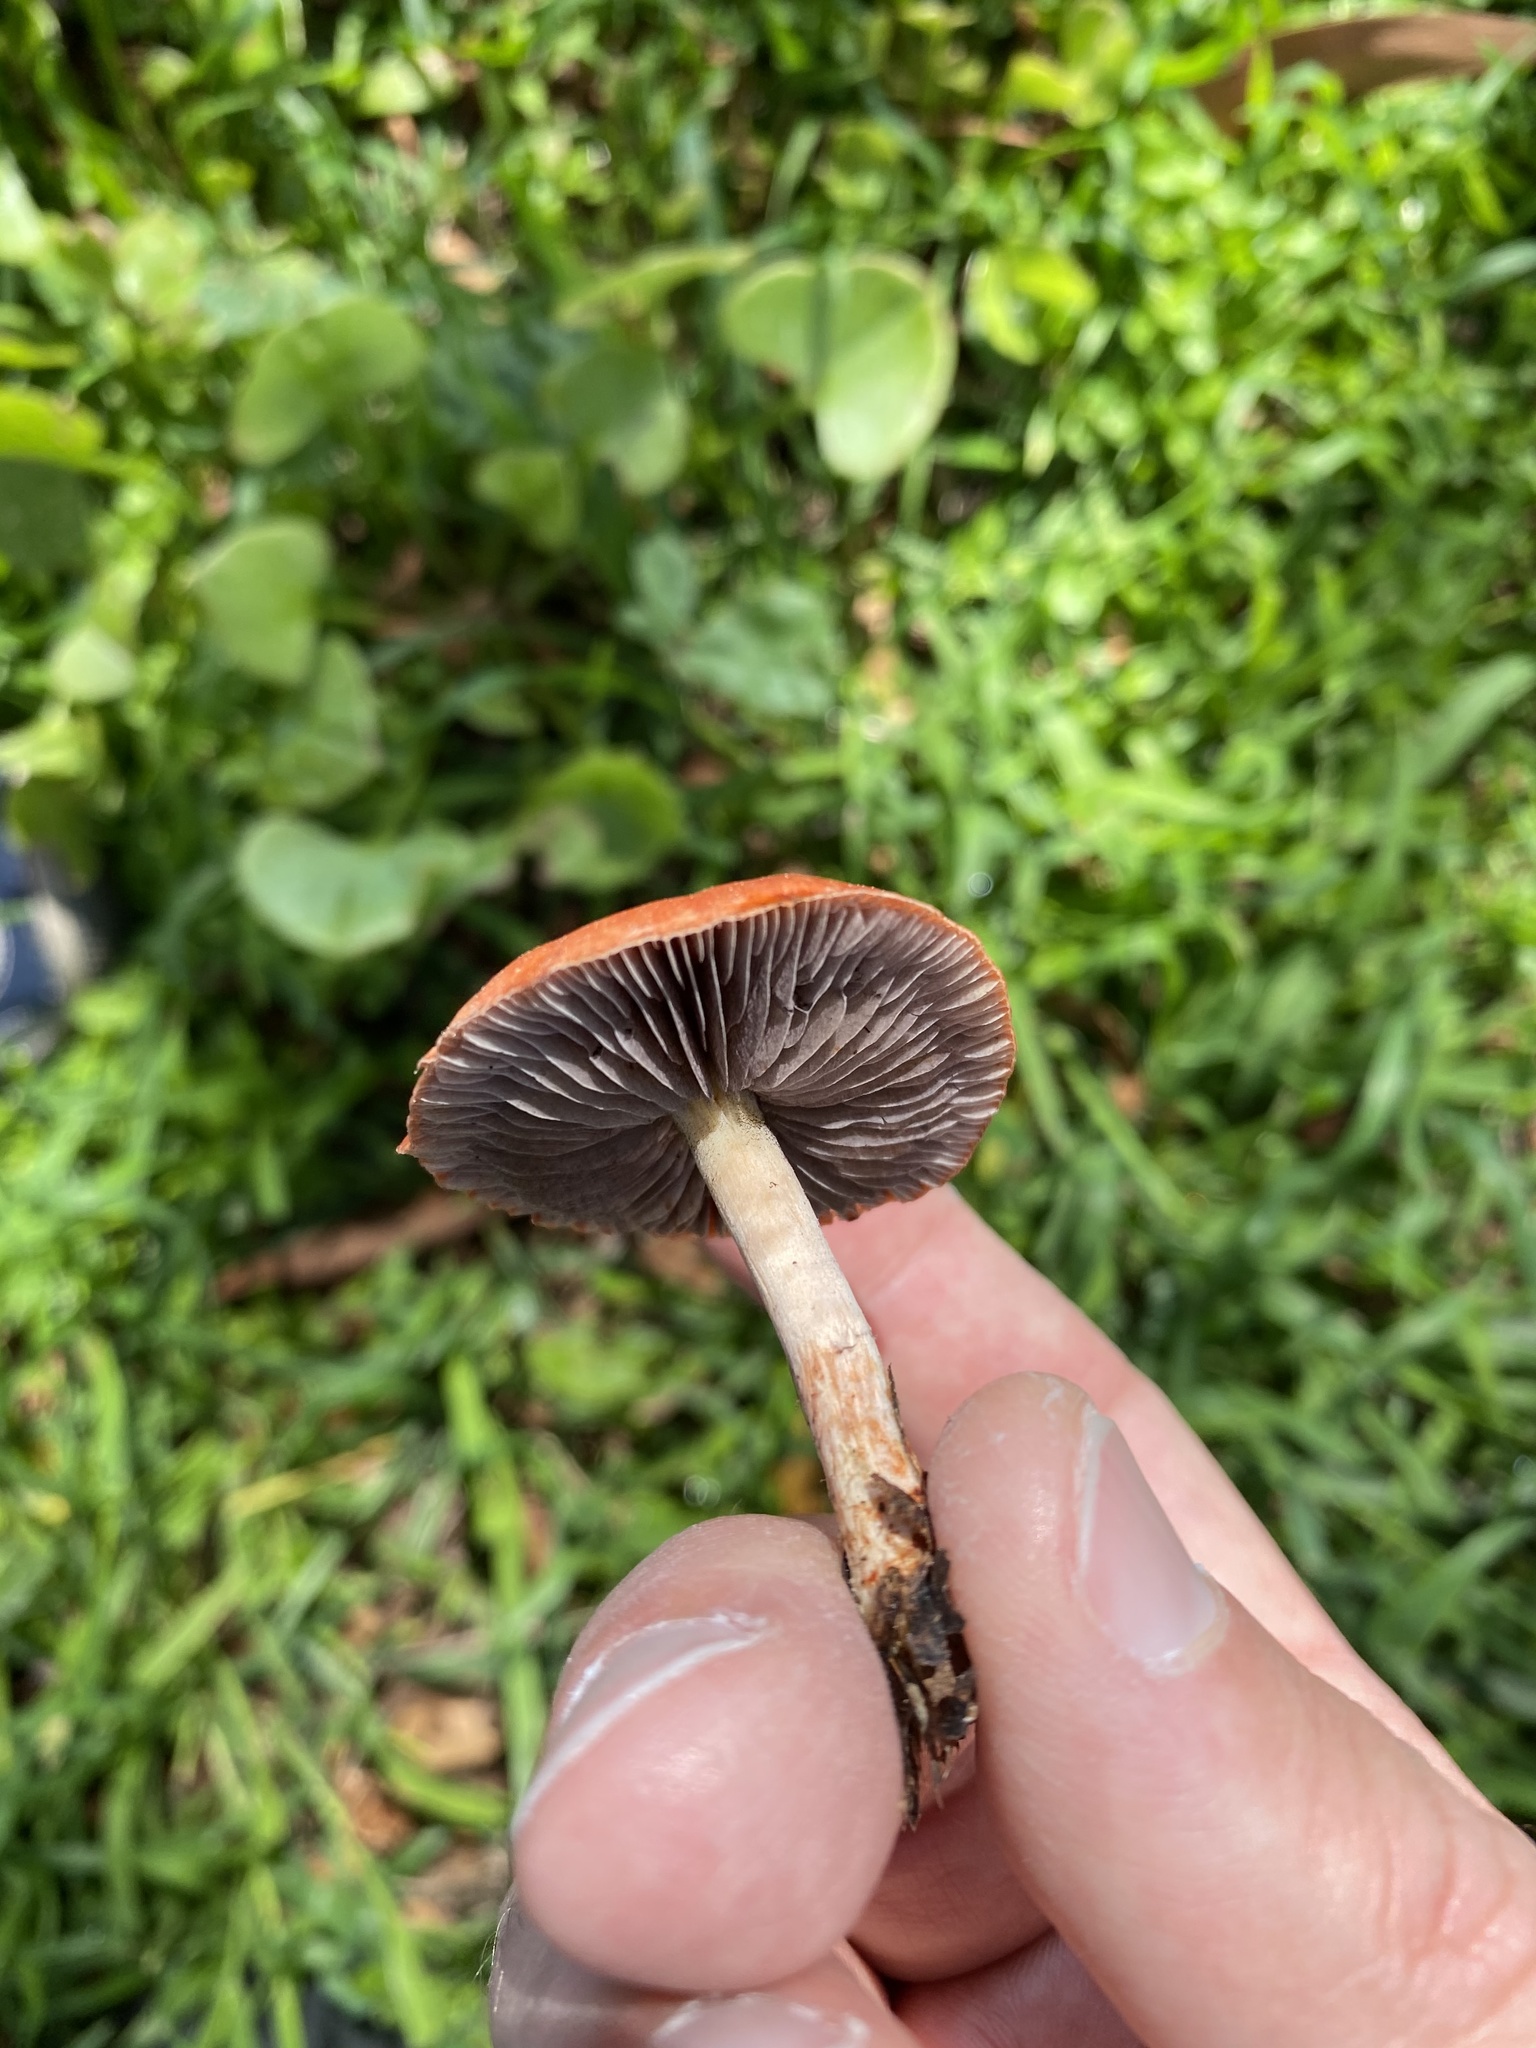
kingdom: Fungi
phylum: Basidiomycota
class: Agaricomycetes
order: Agaricales
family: Strophariaceae
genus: Leratiomyces
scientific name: Leratiomyces ceres
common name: Redlead roundhead
